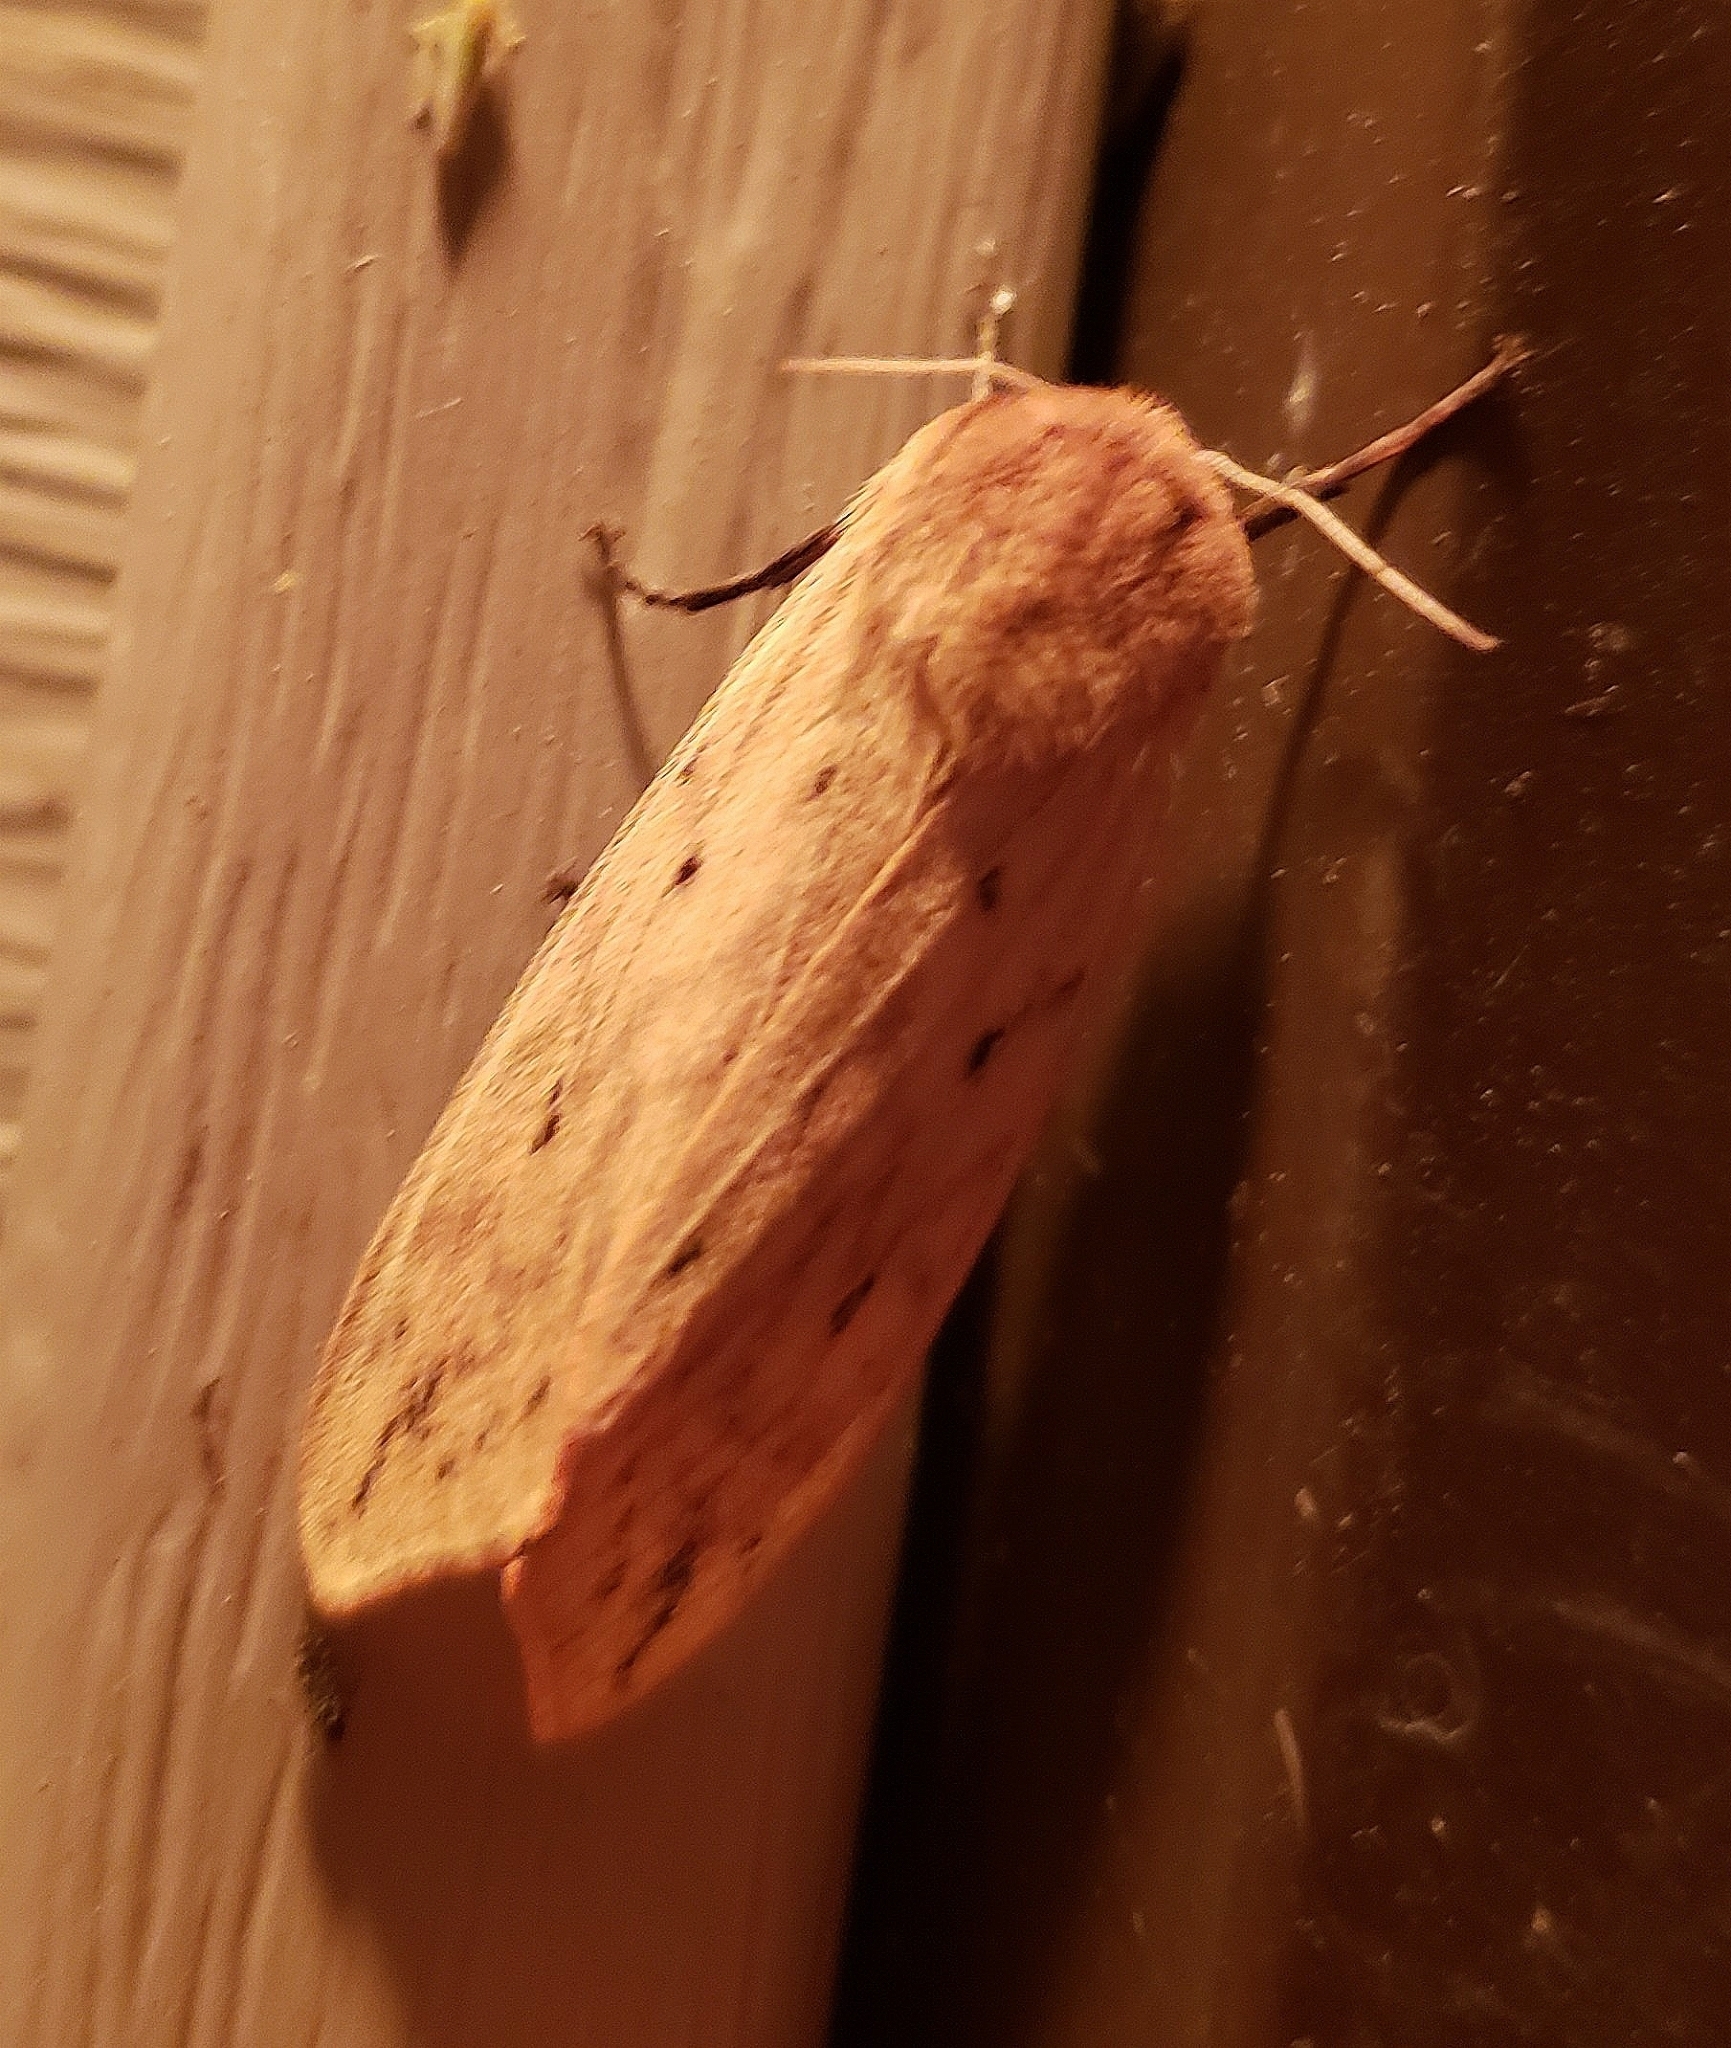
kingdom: Animalia
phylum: Arthropoda
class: Insecta
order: Lepidoptera
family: Erebidae
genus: Pyrrharctia
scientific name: Pyrrharctia isabella
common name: Isabella tiger moth
